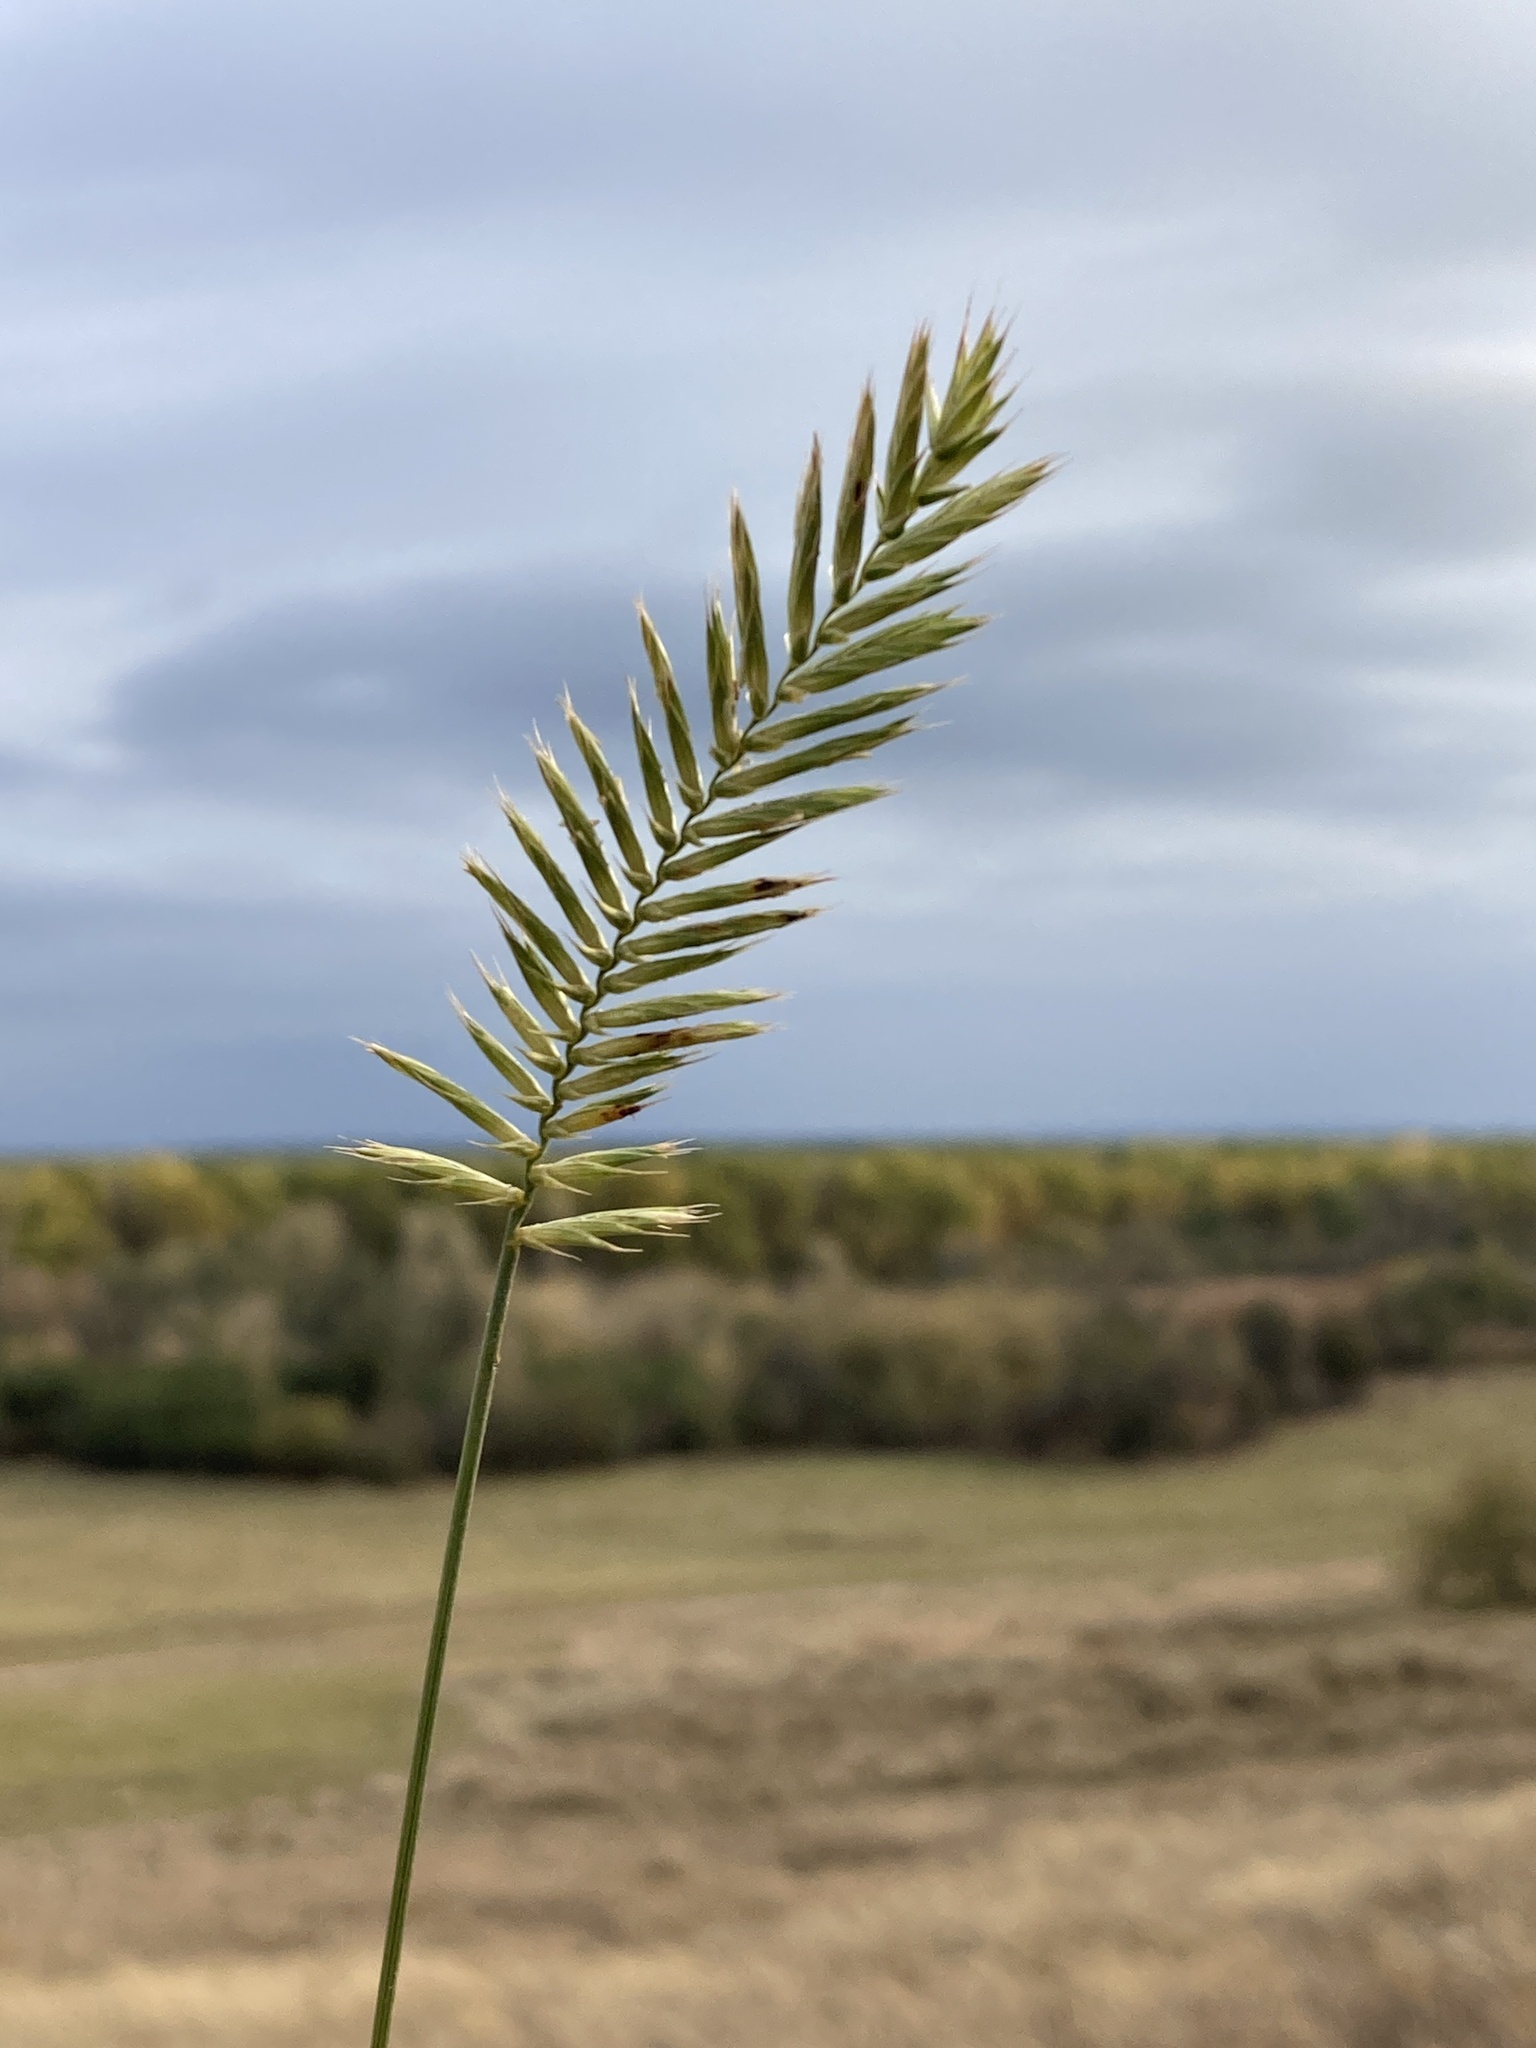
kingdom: Plantae
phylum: Tracheophyta
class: Liliopsida
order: Poales
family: Poaceae
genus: Agropyron
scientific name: Agropyron cristatum
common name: Crested wheatgrass
